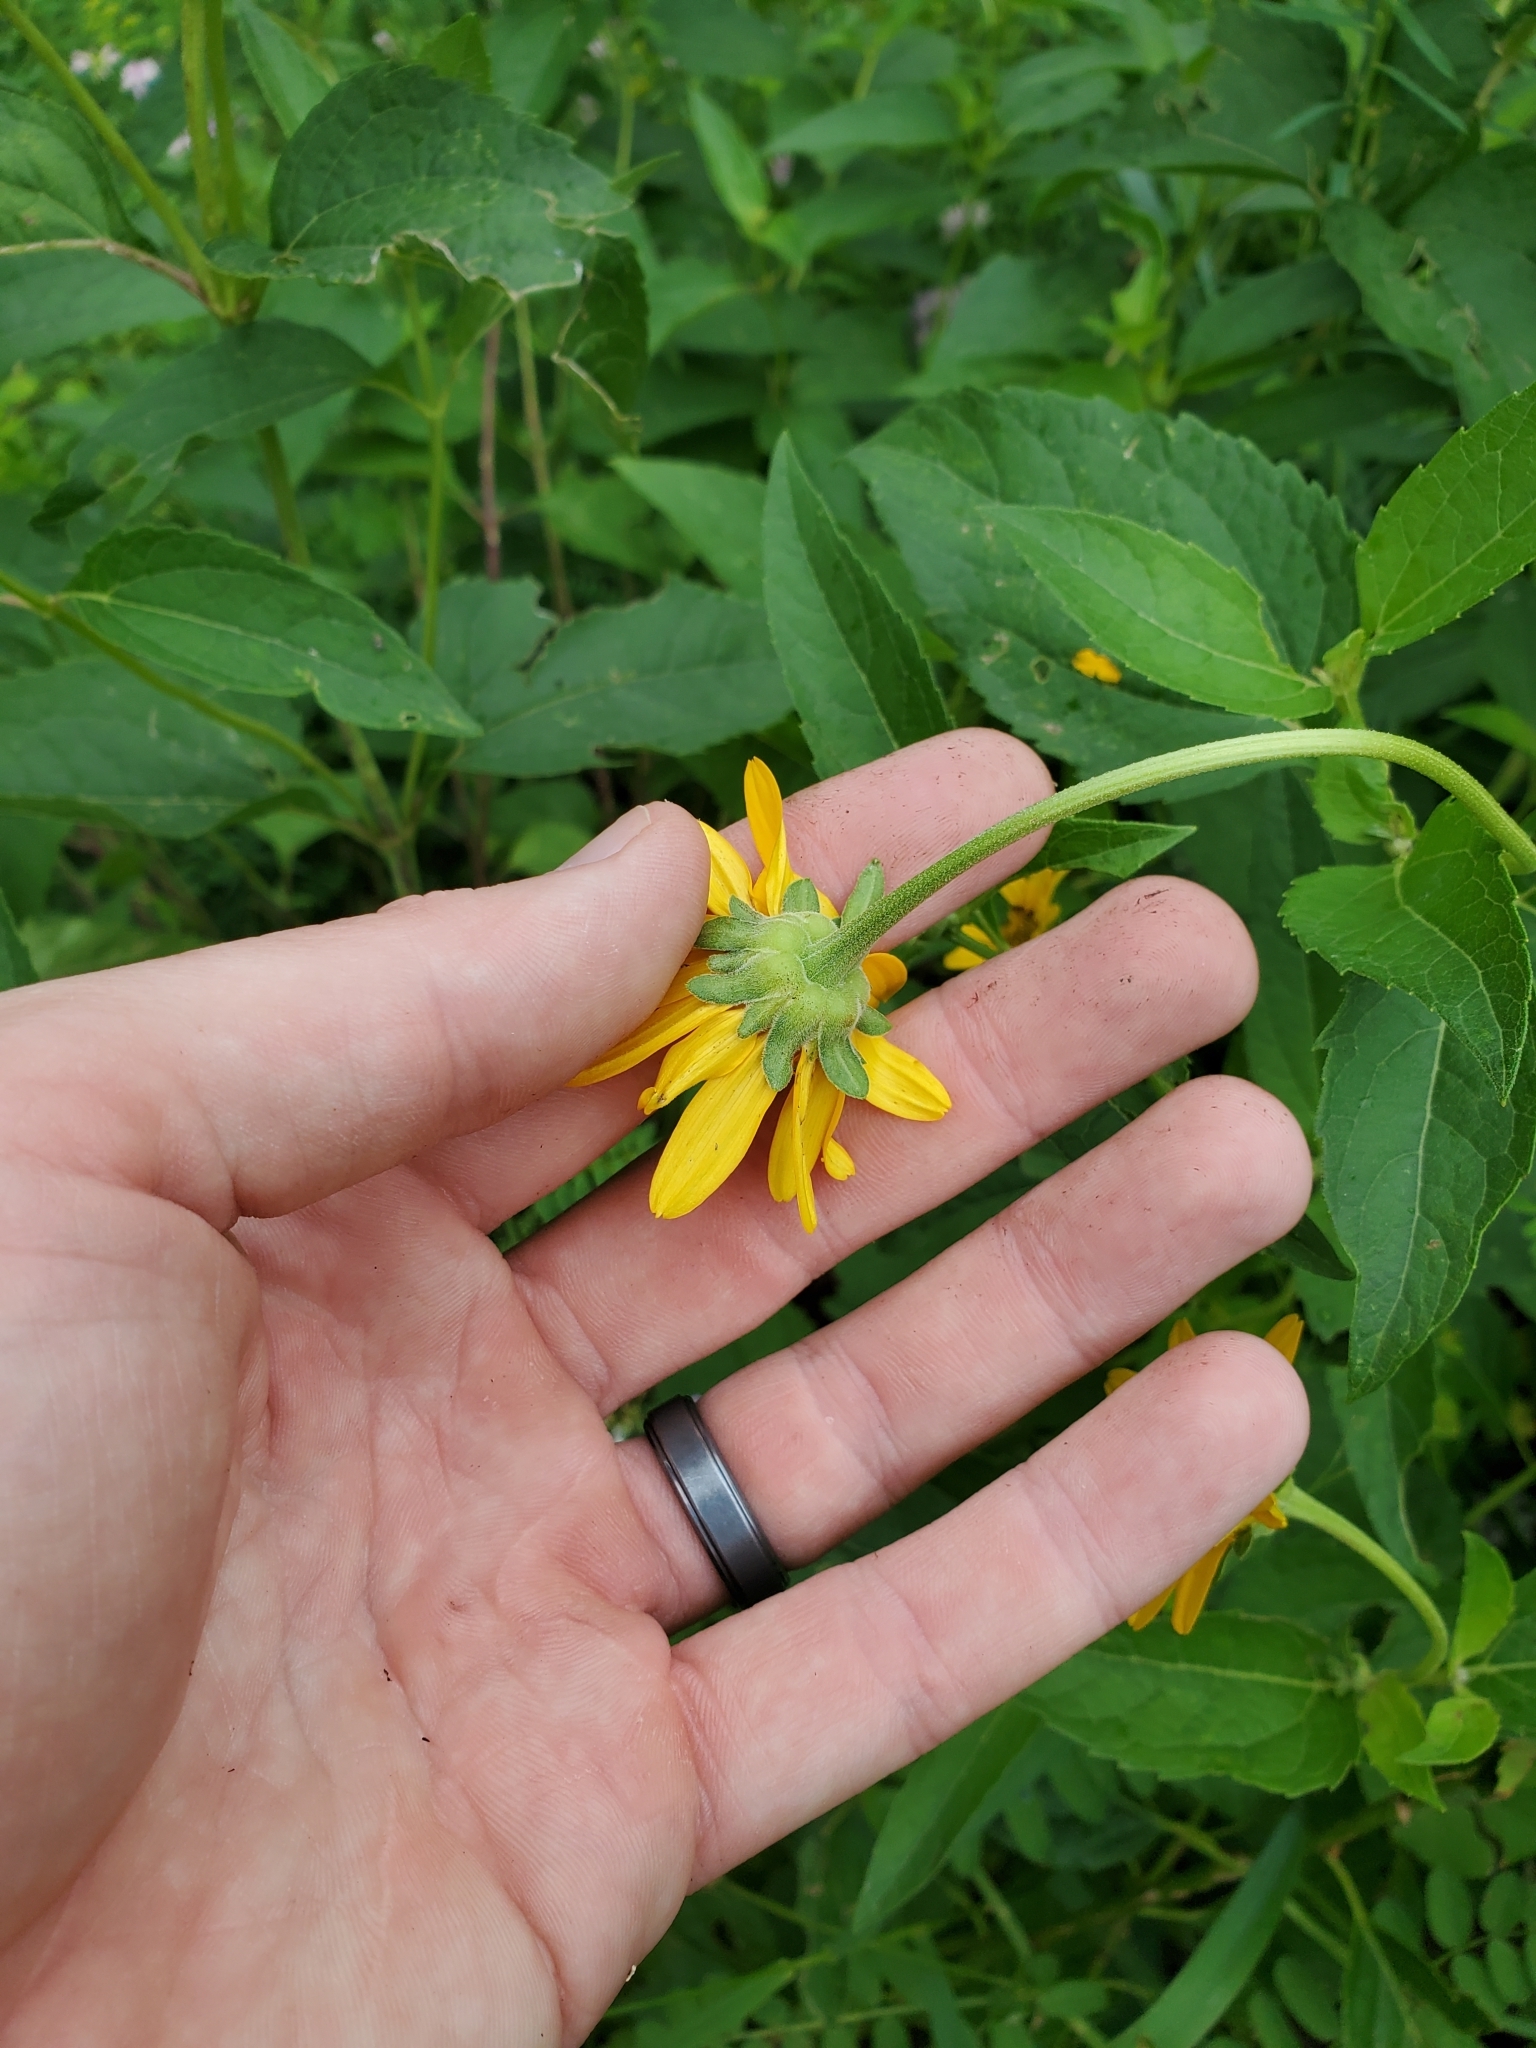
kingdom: Plantae
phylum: Tracheophyta
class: Magnoliopsida
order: Asterales
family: Asteraceae
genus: Heliopsis
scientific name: Heliopsis helianthoides
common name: False sunflower
